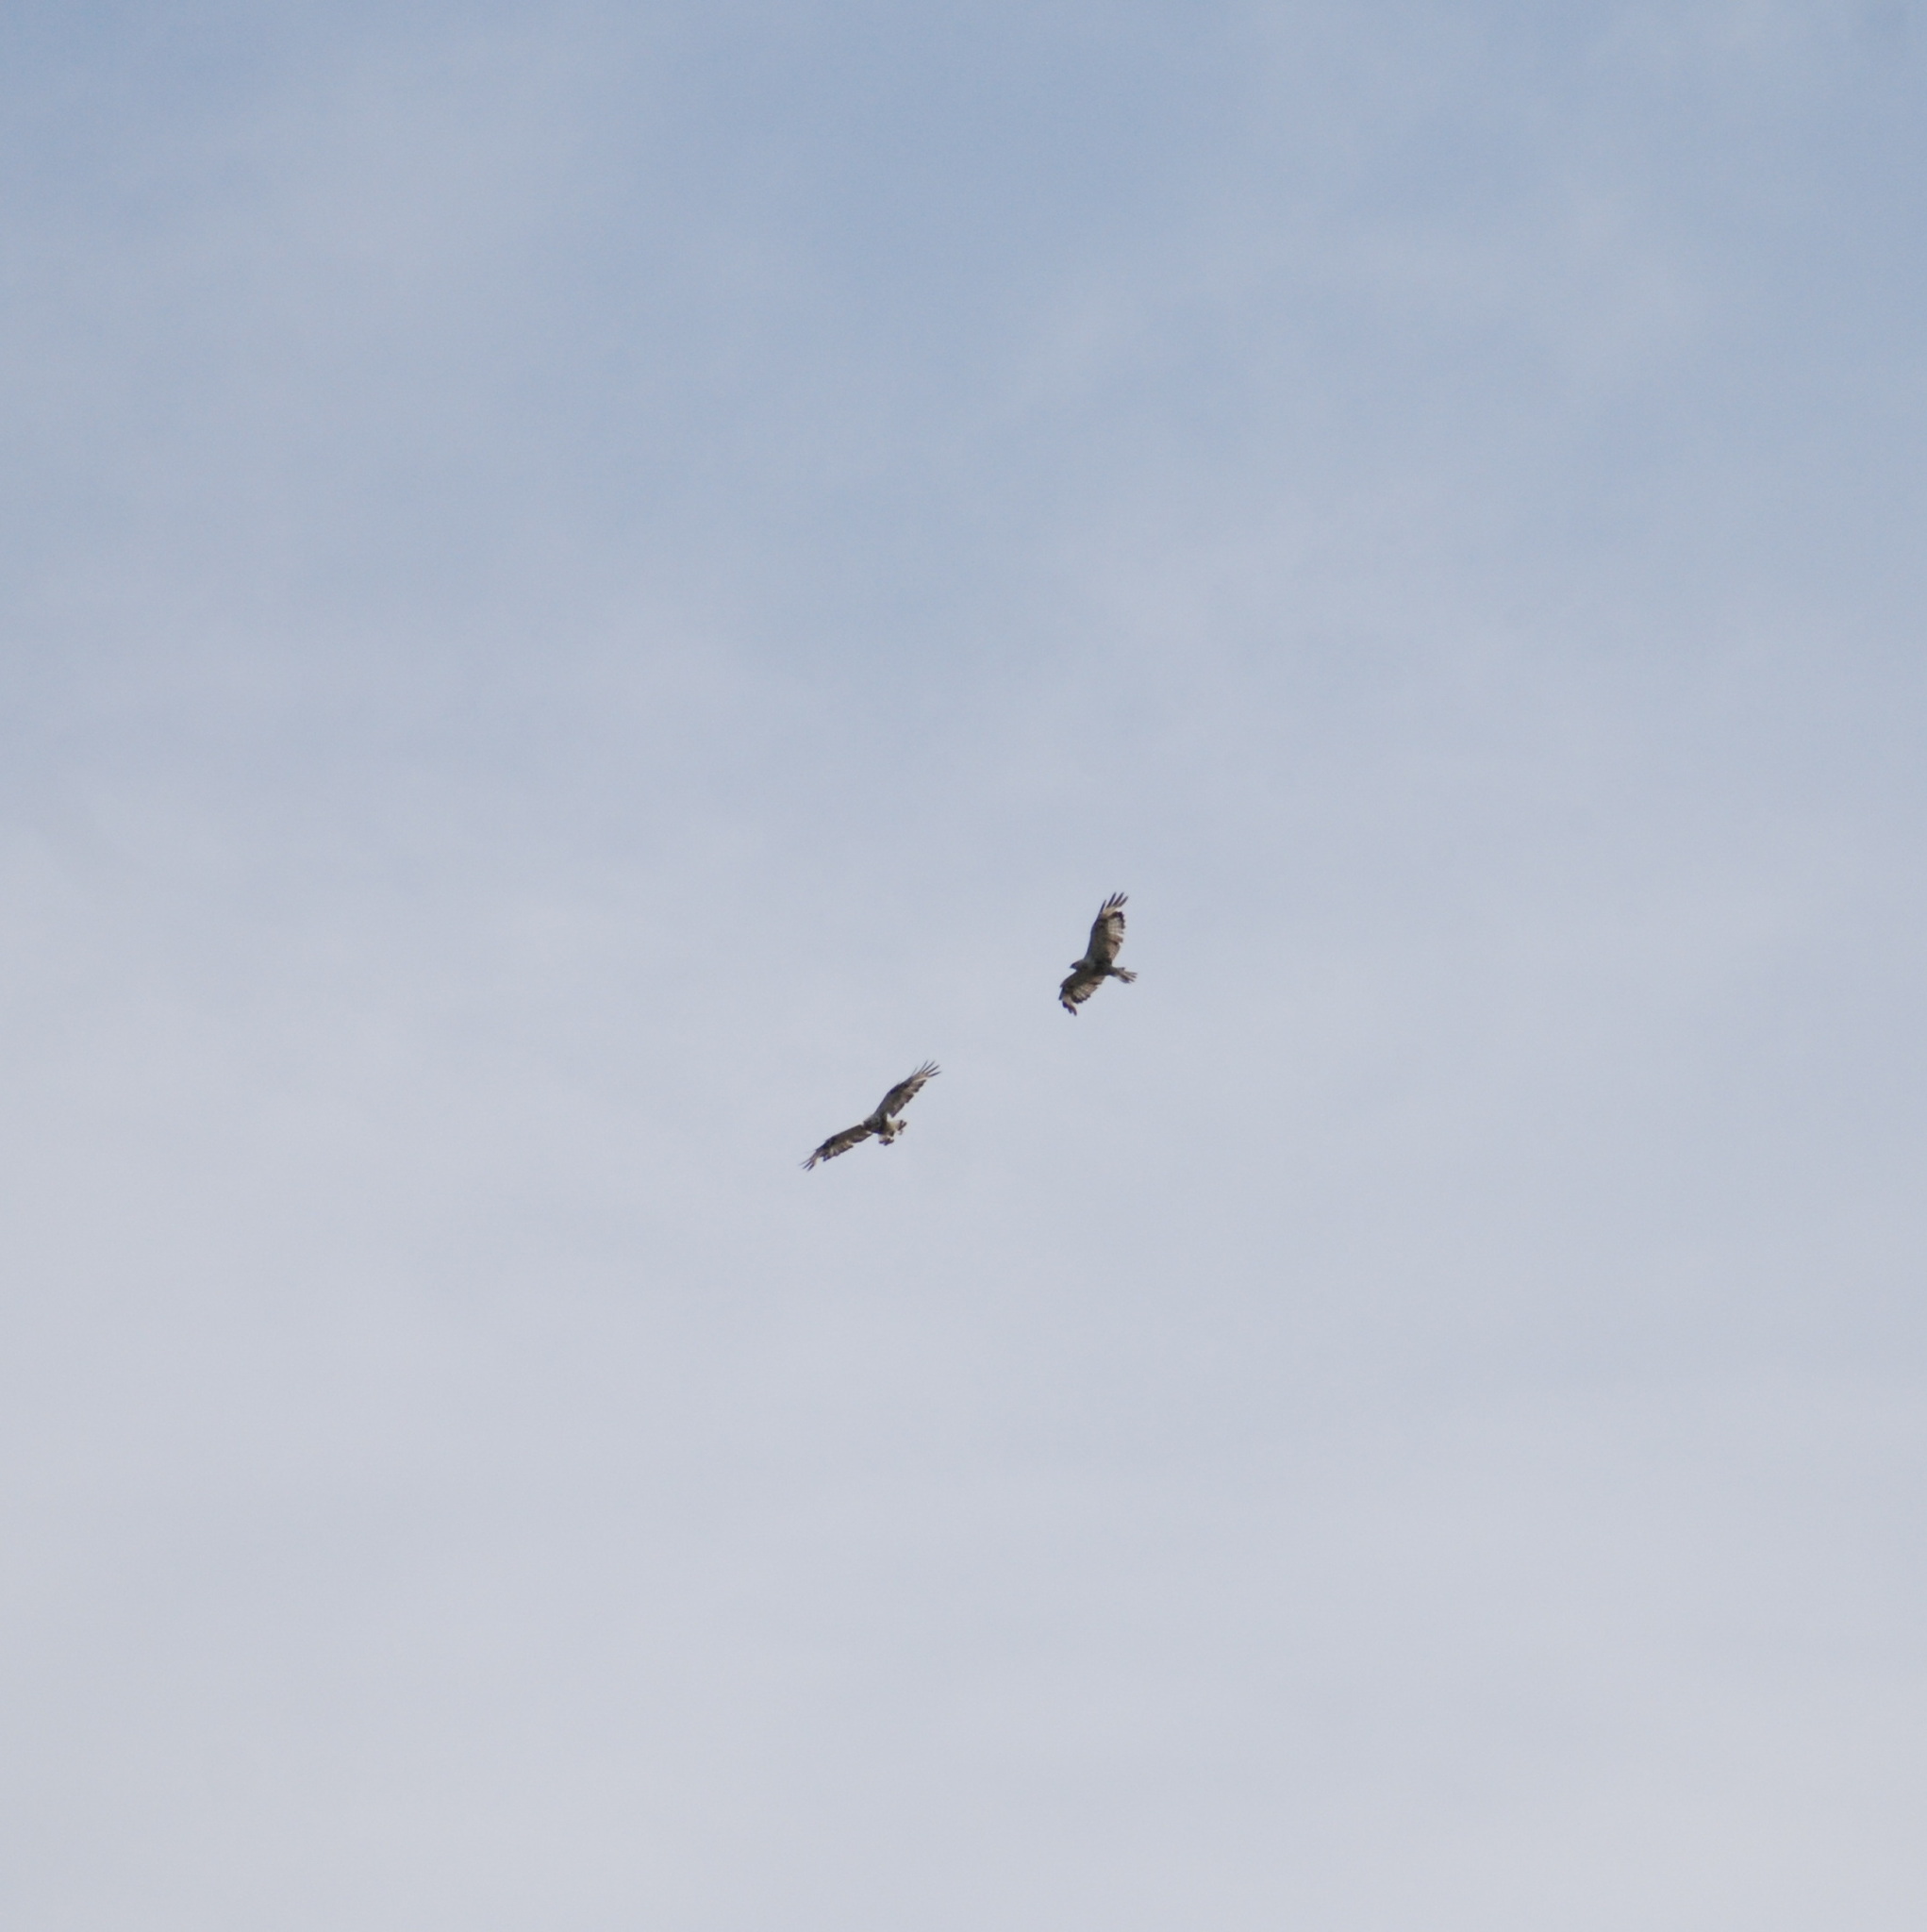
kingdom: Animalia
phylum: Chordata
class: Aves
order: Accipitriformes
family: Accipitridae
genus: Buteo
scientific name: Buteo lagopus
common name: Rough-legged buzzard
